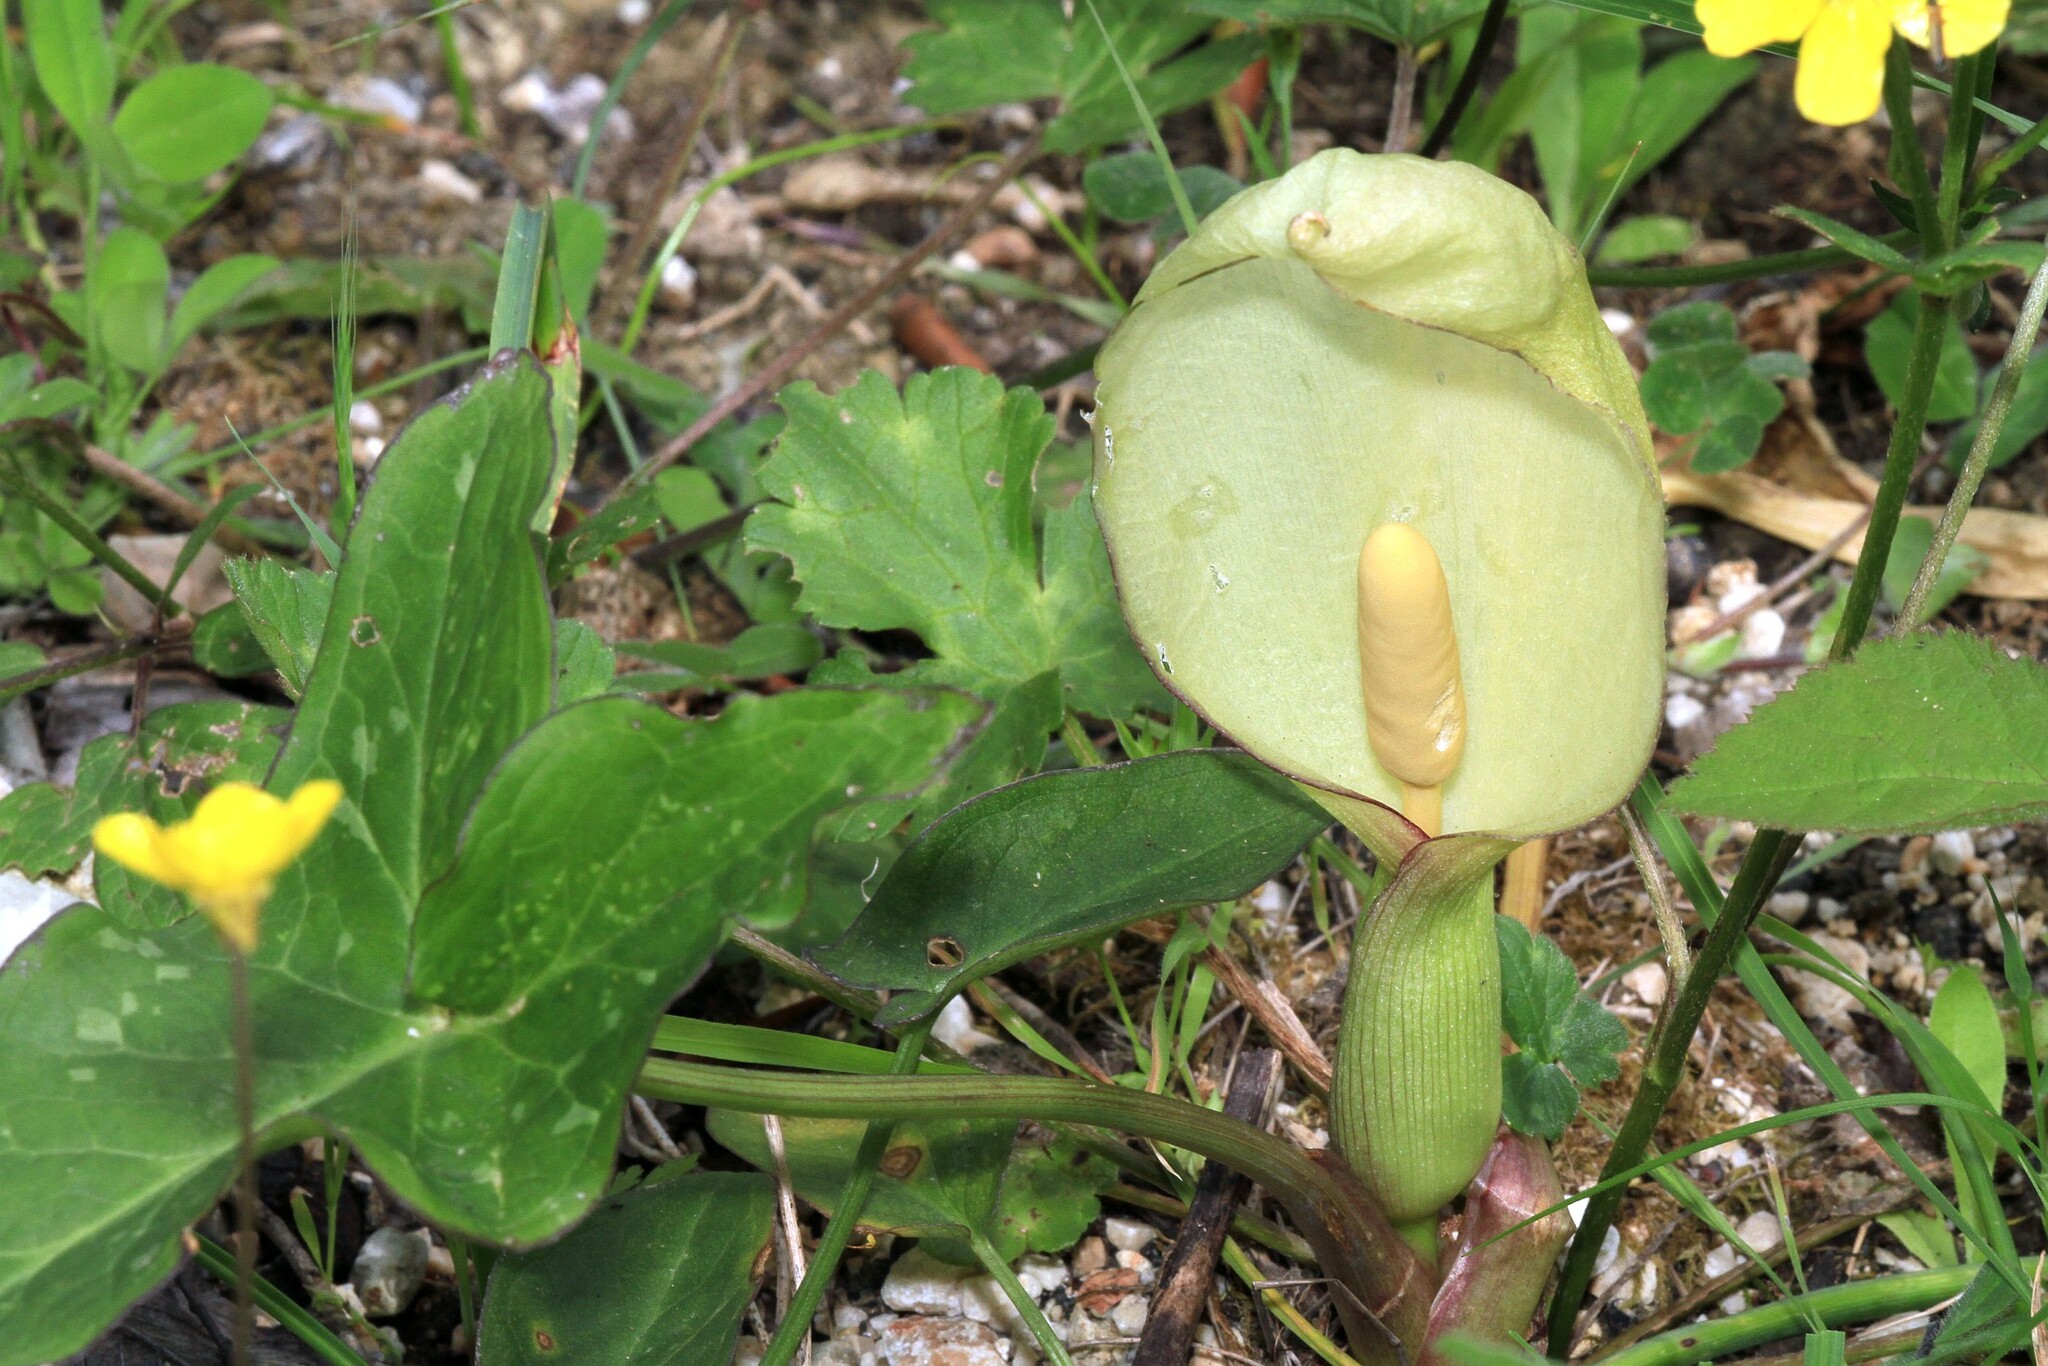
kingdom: Plantae
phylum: Tracheophyta
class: Liliopsida
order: Alismatales
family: Araceae
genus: Arum
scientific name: Arum italicum
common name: Italian lords-and-ladies
